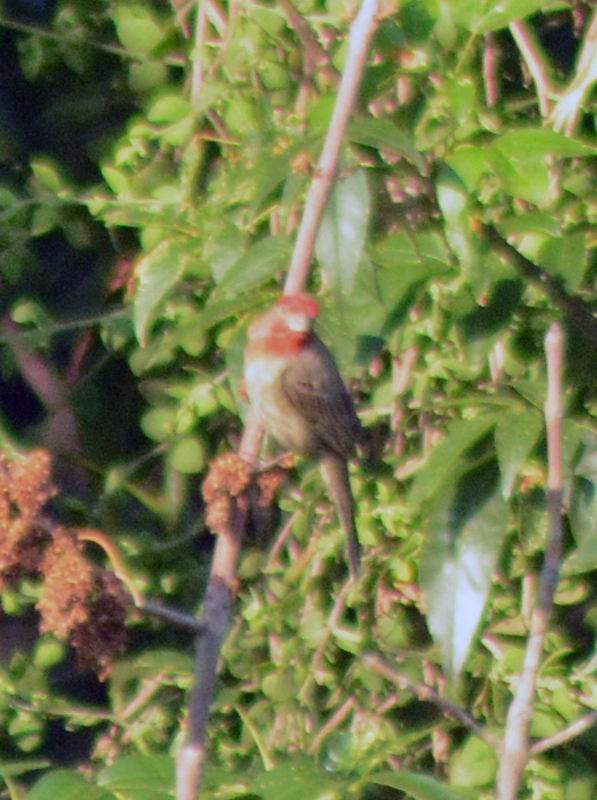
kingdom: Animalia
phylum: Chordata
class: Aves
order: Passeriformes
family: Fringillidae
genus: Haemorhous
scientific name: Haemorhous mexicanus
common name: House finch
